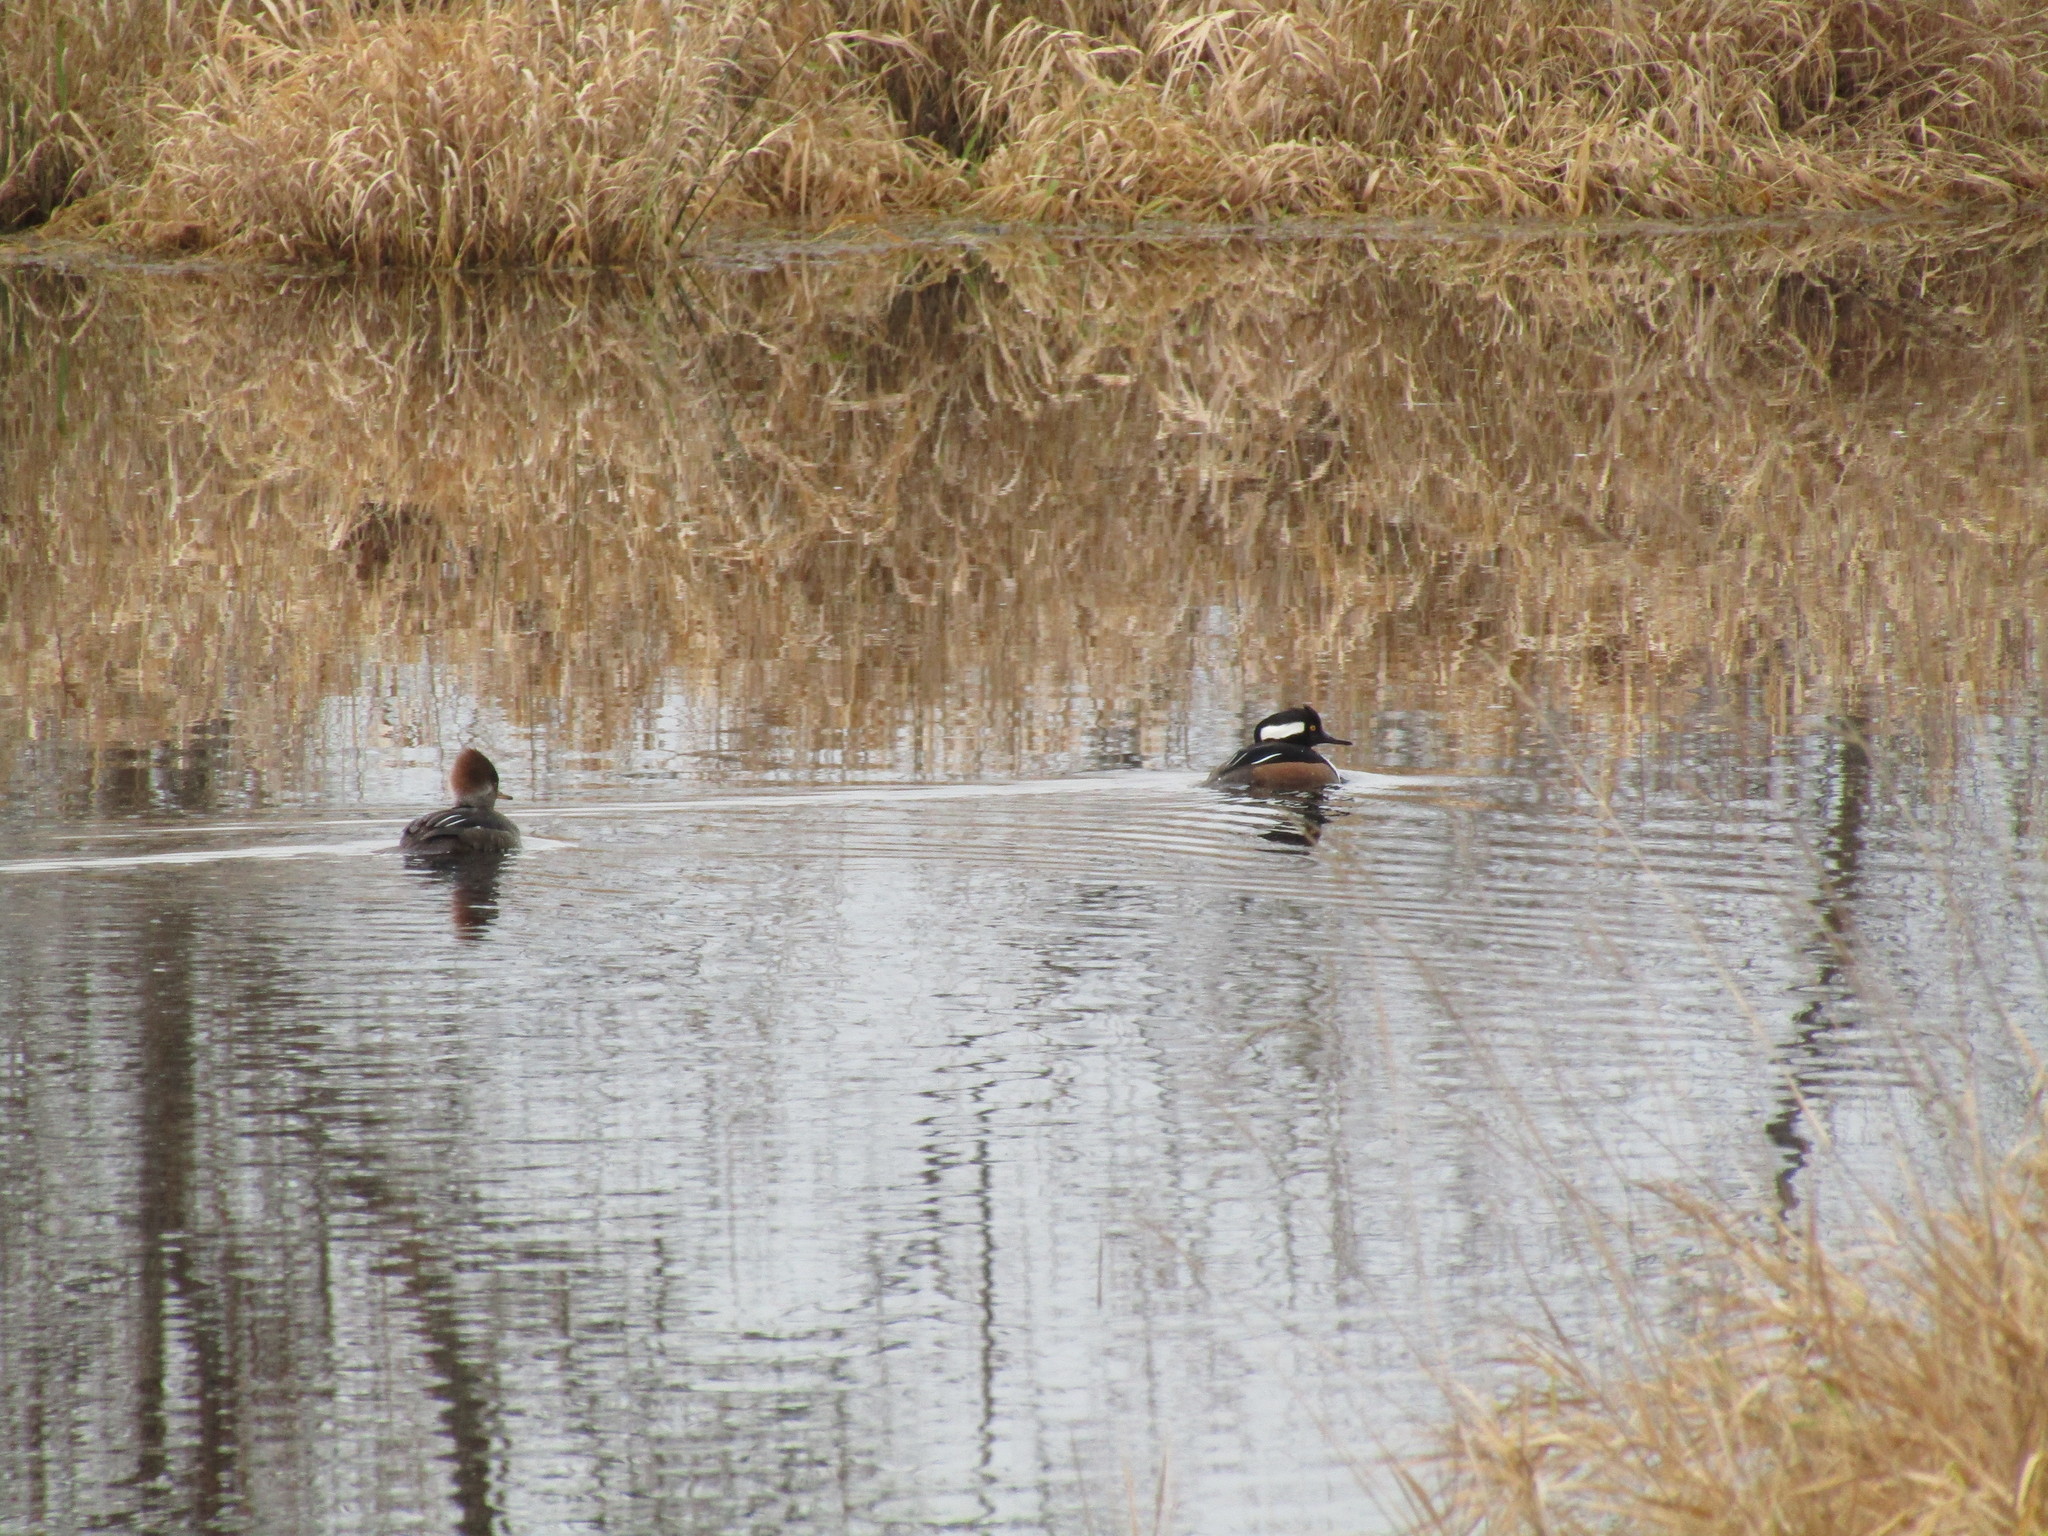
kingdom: Animalia
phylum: Chordata
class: Aves
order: Anseriformes
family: Anatidae
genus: Lophodytes
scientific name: Lophodytes cucullatus
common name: Hooded merganser
